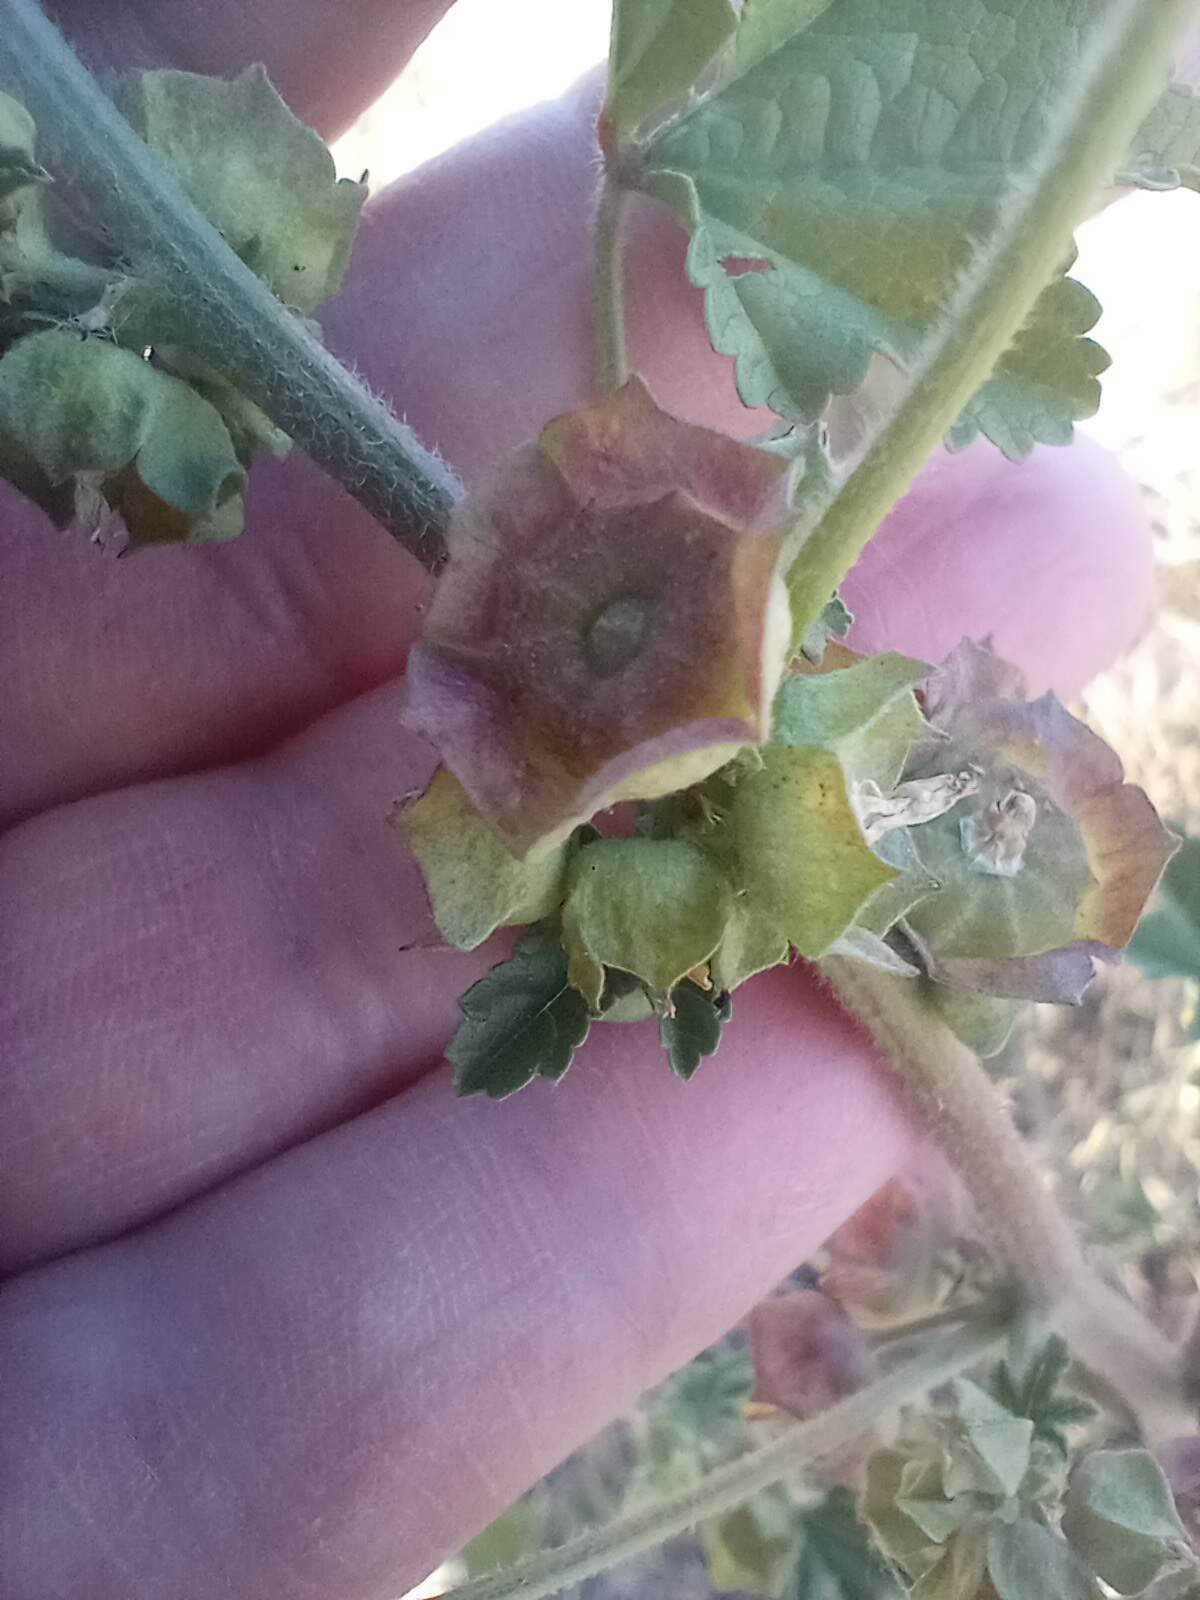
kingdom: Plantae
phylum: Tracheophyta
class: Magnoliopsida
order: Malvales
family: Malvaceae
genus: Malva
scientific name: Malva parviflora
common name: Least mallow
